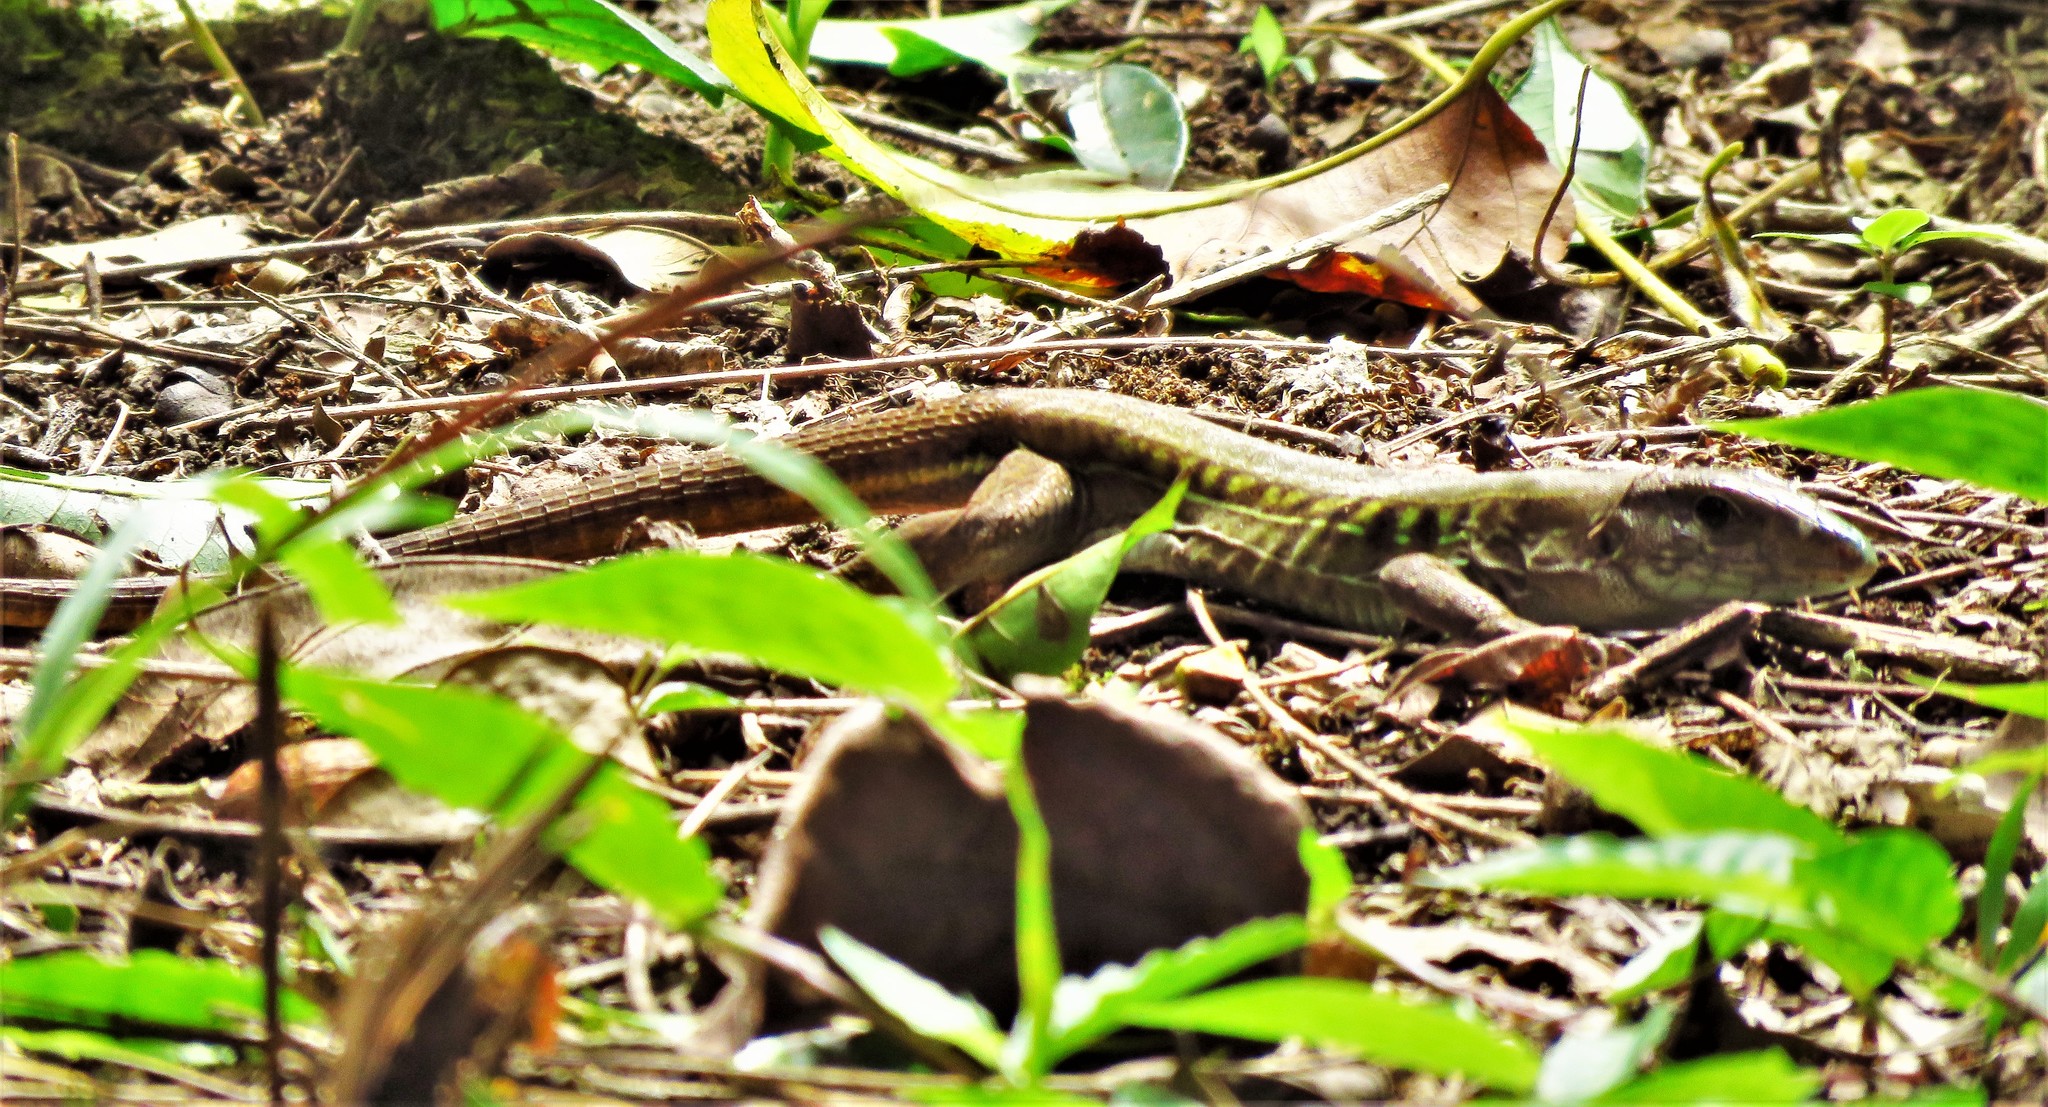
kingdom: Animalia
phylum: Chordata
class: Squamata
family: Teiidae
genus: Holcosus
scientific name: Holcosus undulatus
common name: Rainbow ameiva
